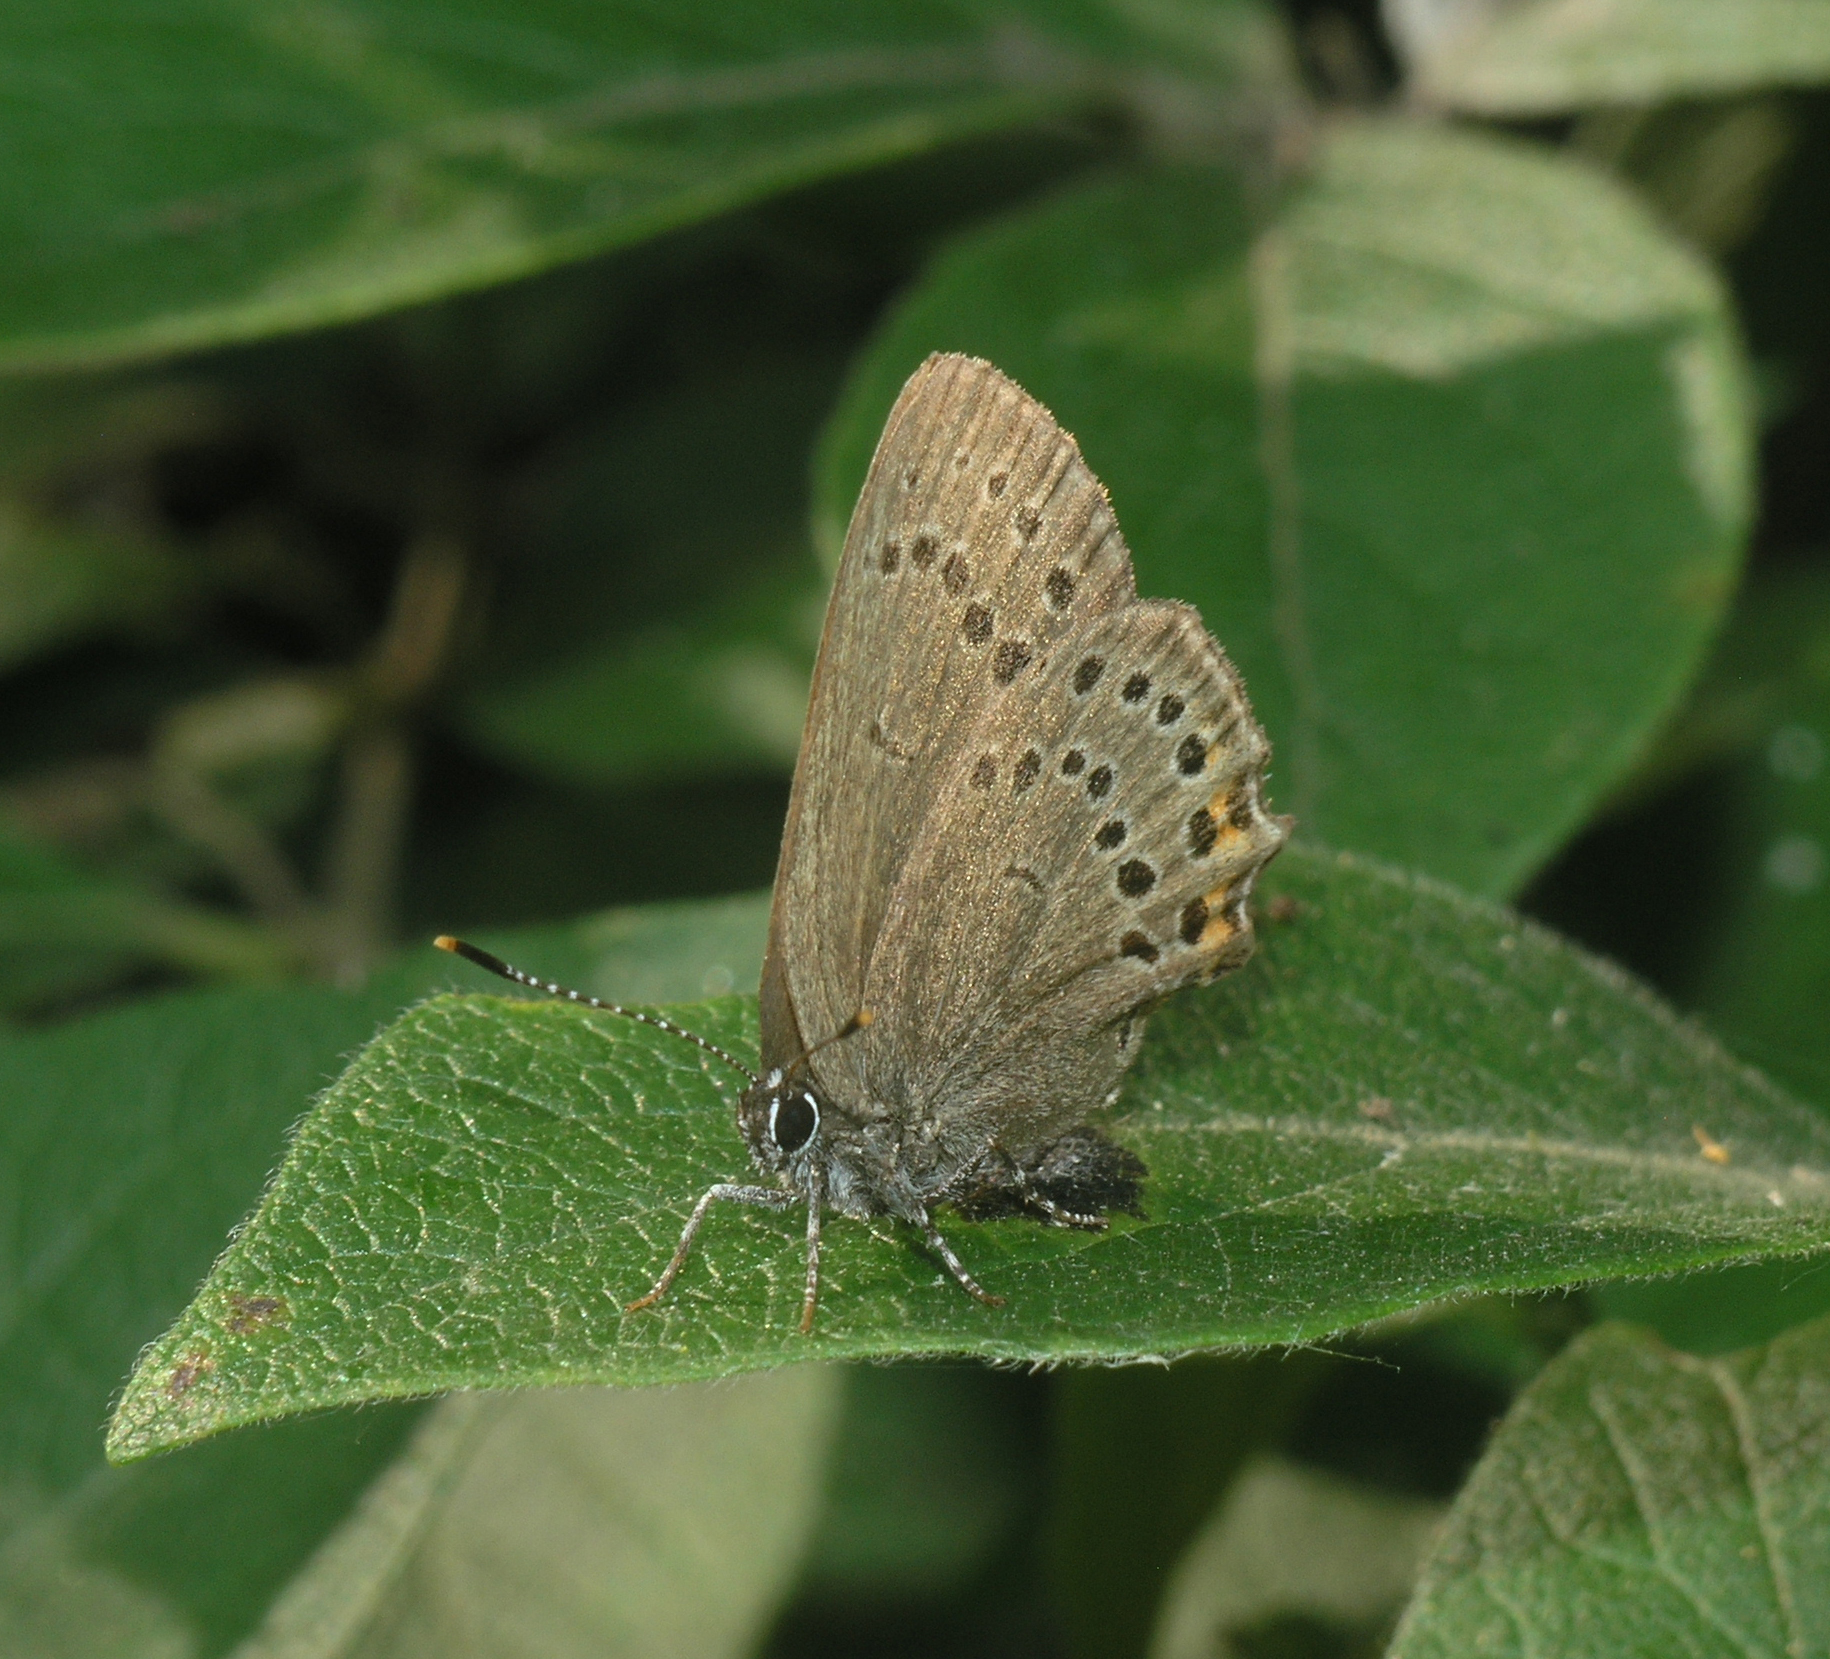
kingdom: Animalia
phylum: Arthropoda
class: Insecta
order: Lepidoptera
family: Lycaenidae
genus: Satyrium
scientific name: Satyrium
